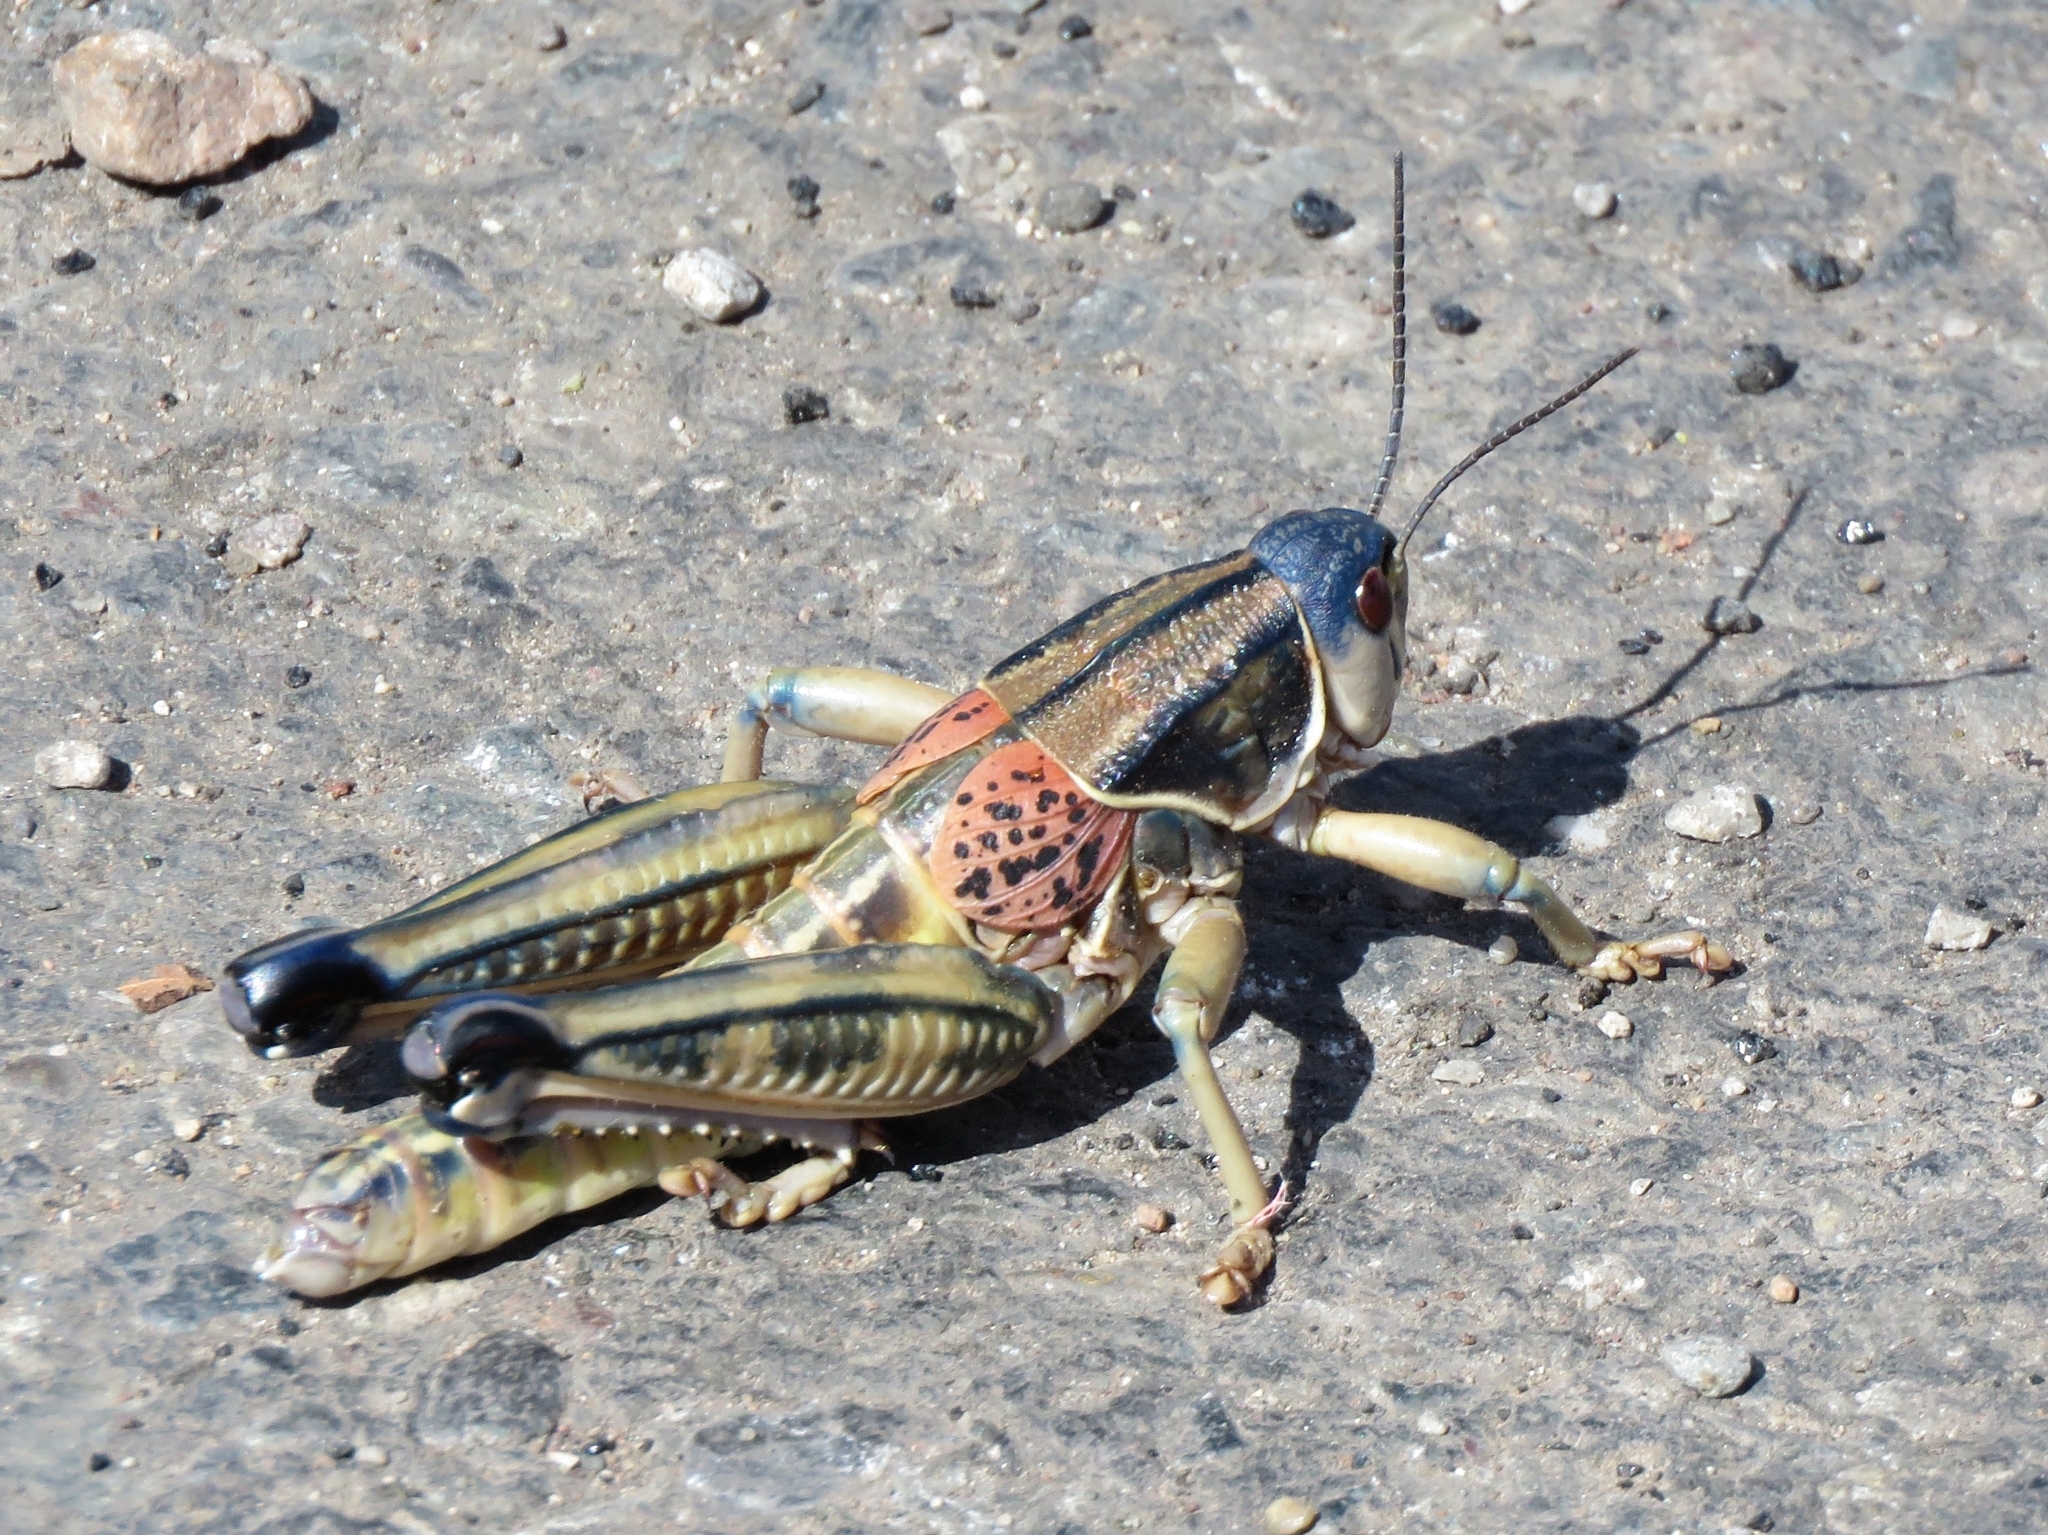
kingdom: Animalia
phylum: Arthropoda
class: Insecta
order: Orthoptera
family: Romaleidae
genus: Brachystola
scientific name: Brachystola magna
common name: Plains lubber grasshopper
